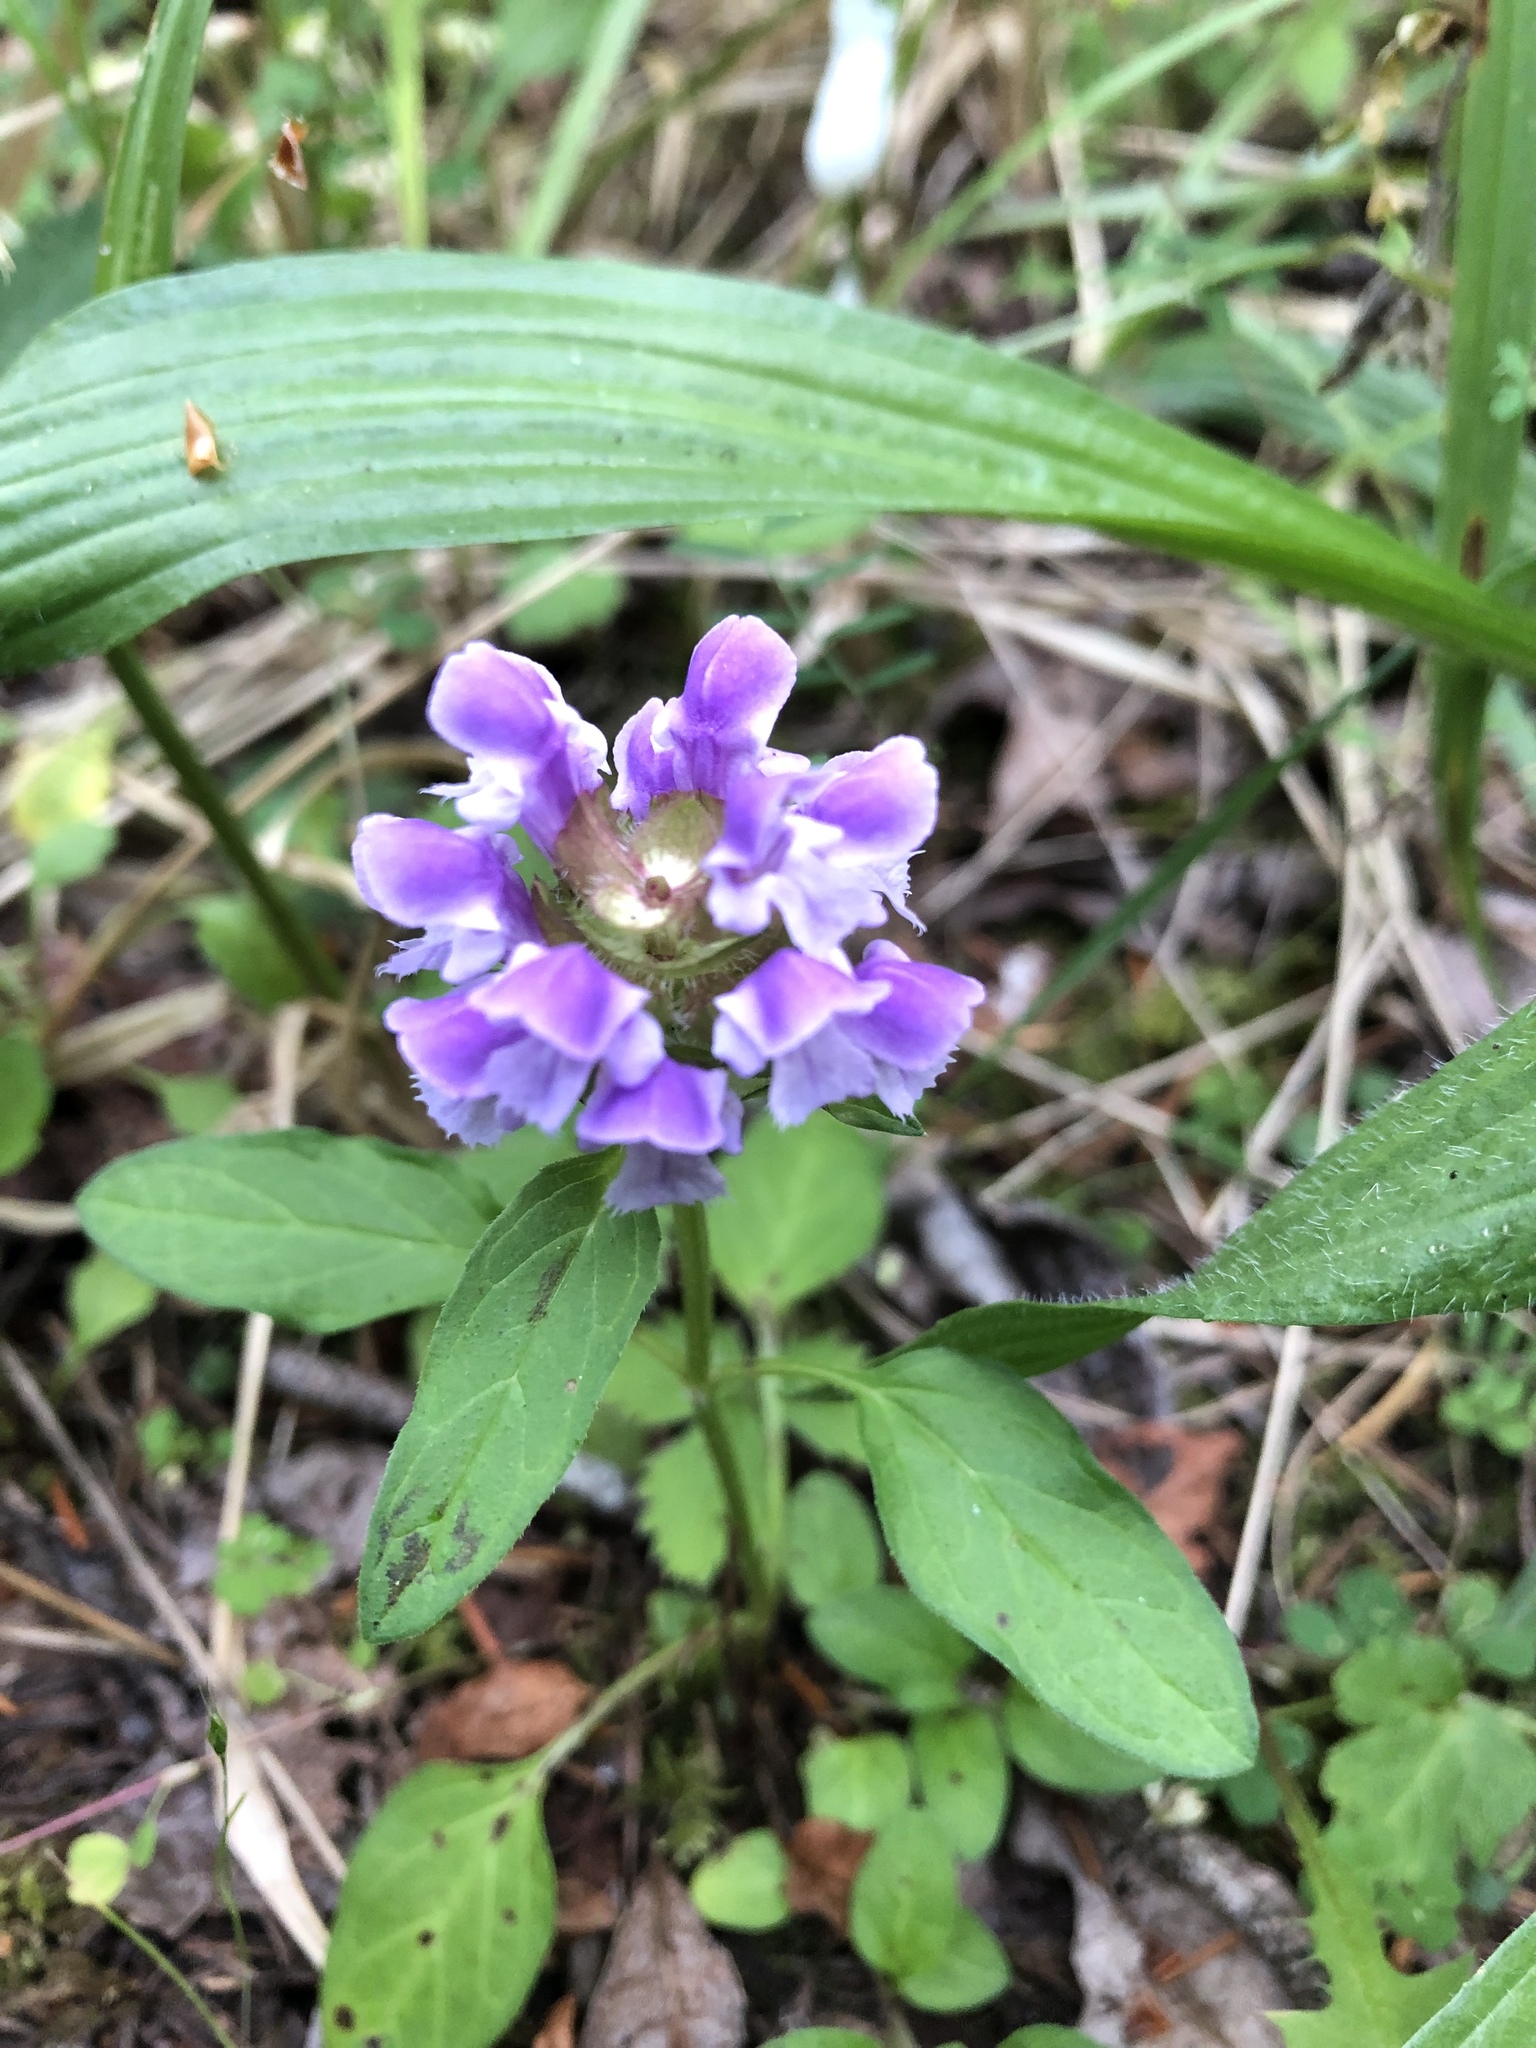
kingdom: Plantae
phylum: Tracheophyta
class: Magnoliopsida
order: Lamiales
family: Lamiaceae
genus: Prunella
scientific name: Prunella vulgaris
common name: Heal-all
